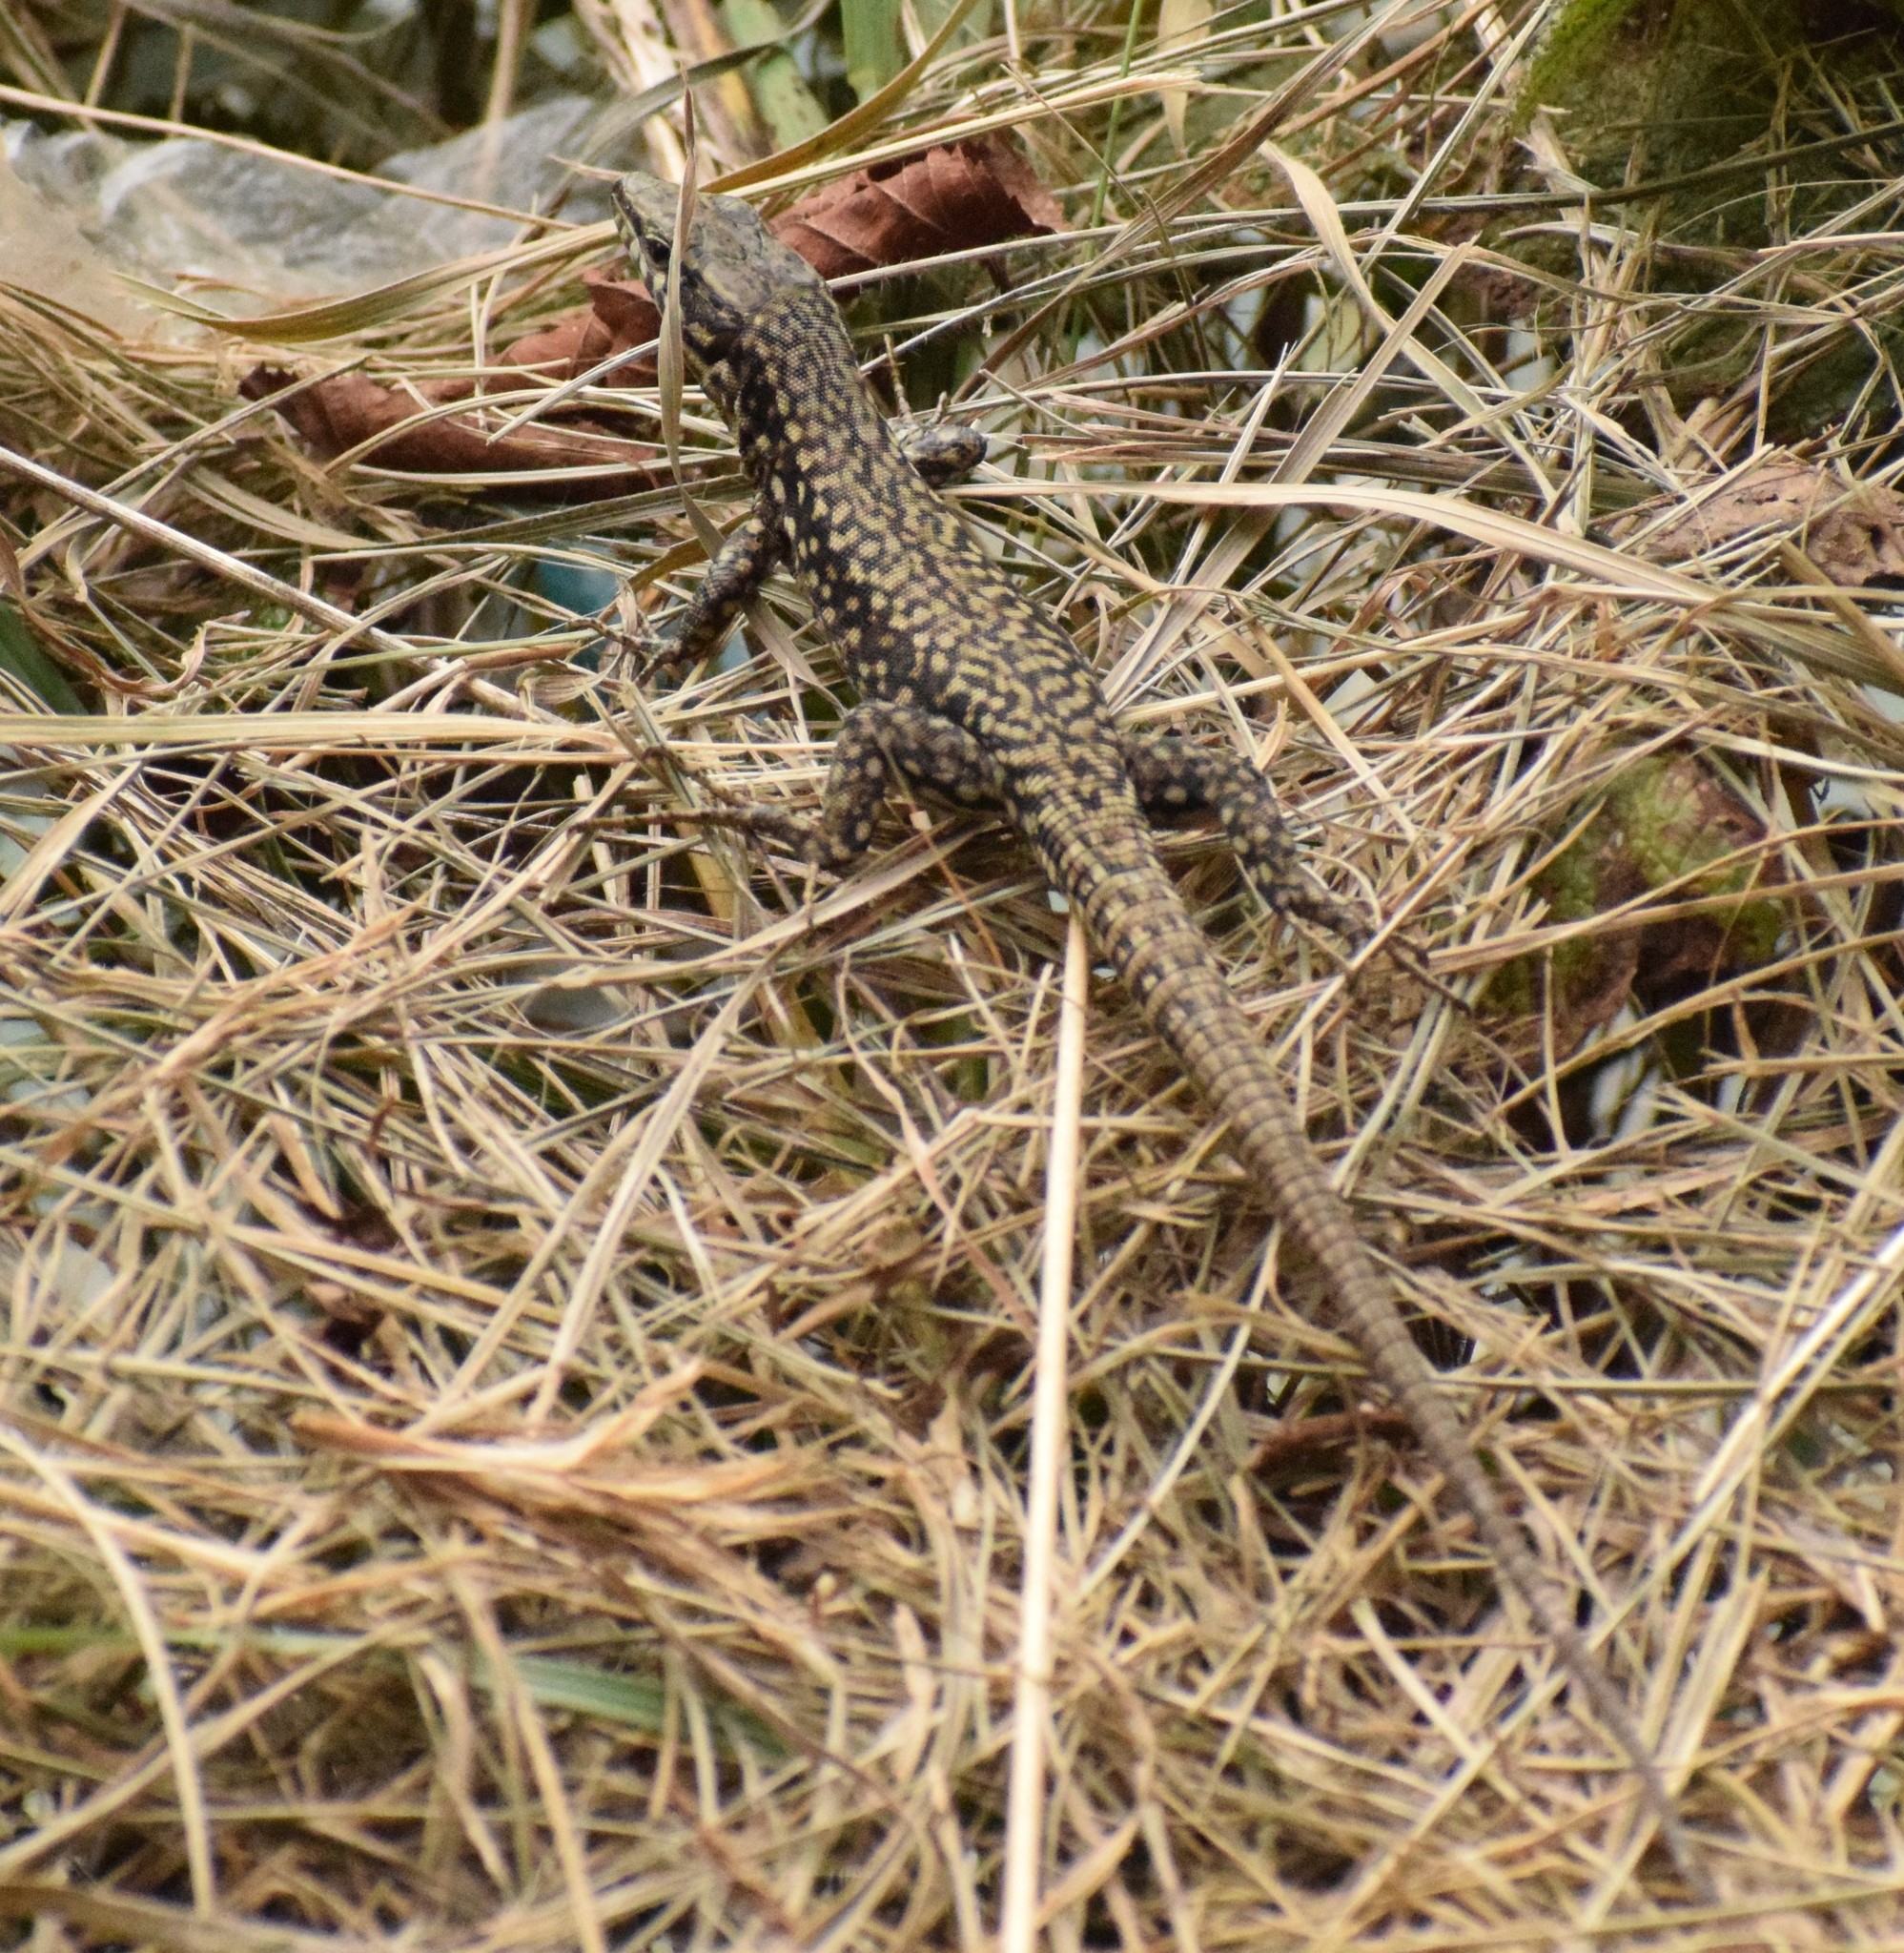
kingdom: Animalia
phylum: Chordata
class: Squamata
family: Lacertidae
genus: Podarcis
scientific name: Podarcis muralis
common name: Common wall lizard
